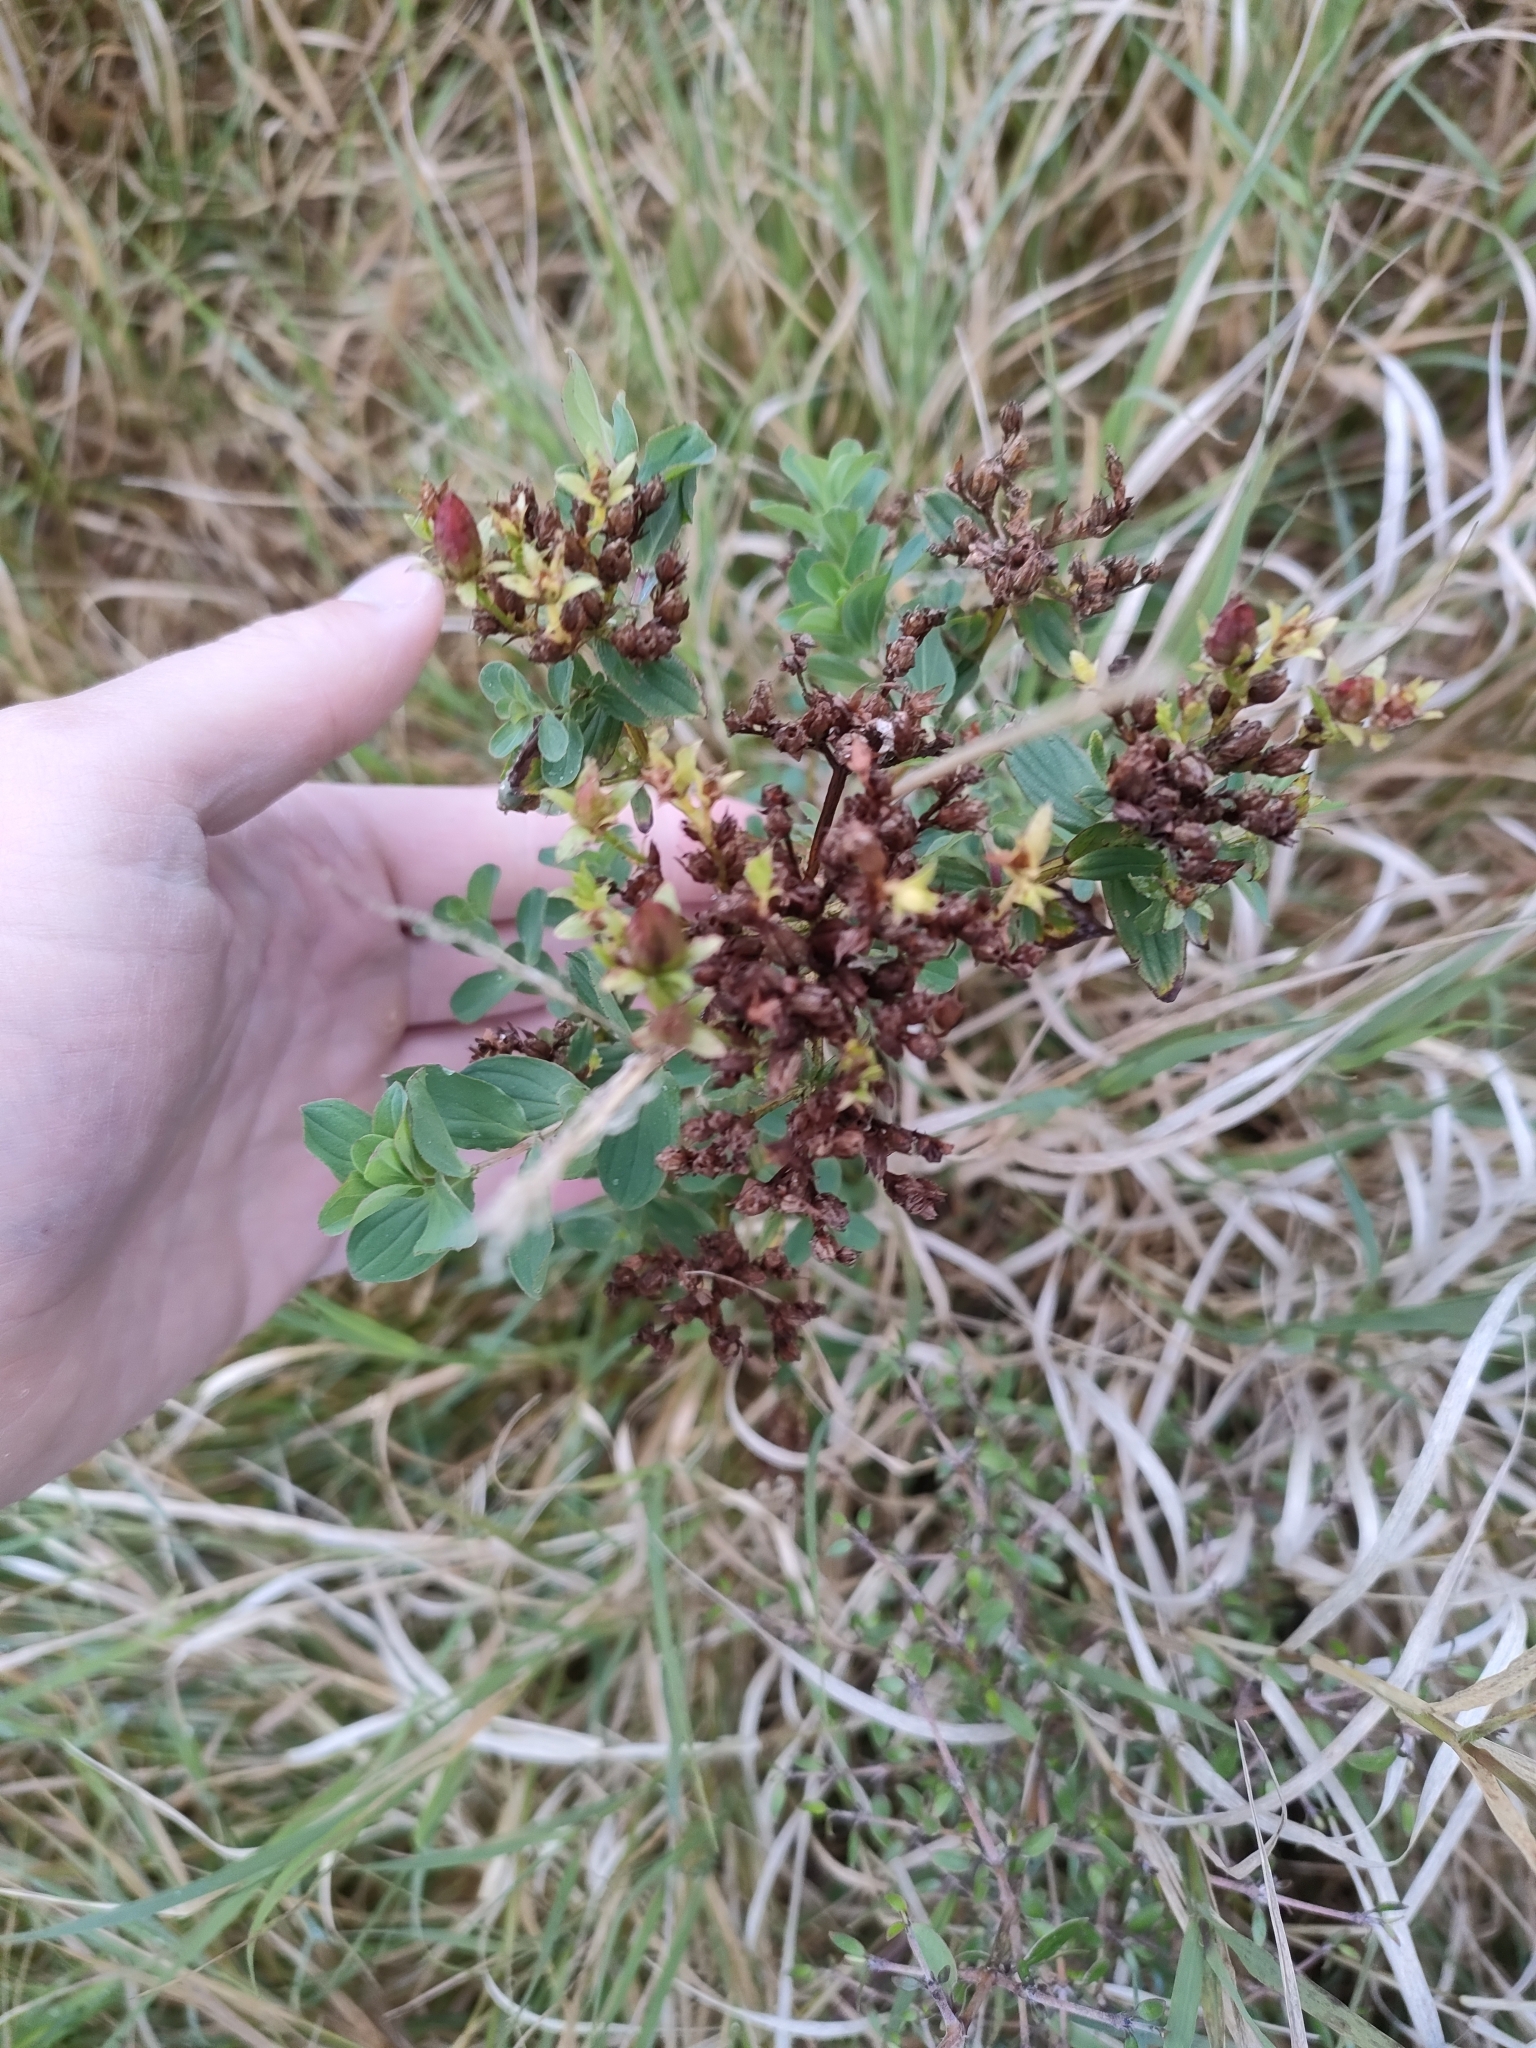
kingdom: Plantae
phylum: Tracheophyta
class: Magnoliopsida
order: Malpighiales
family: Hypericaceae
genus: Hypericum
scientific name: Hypericum tetrapterum
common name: Square-stalked st. john's-wort
